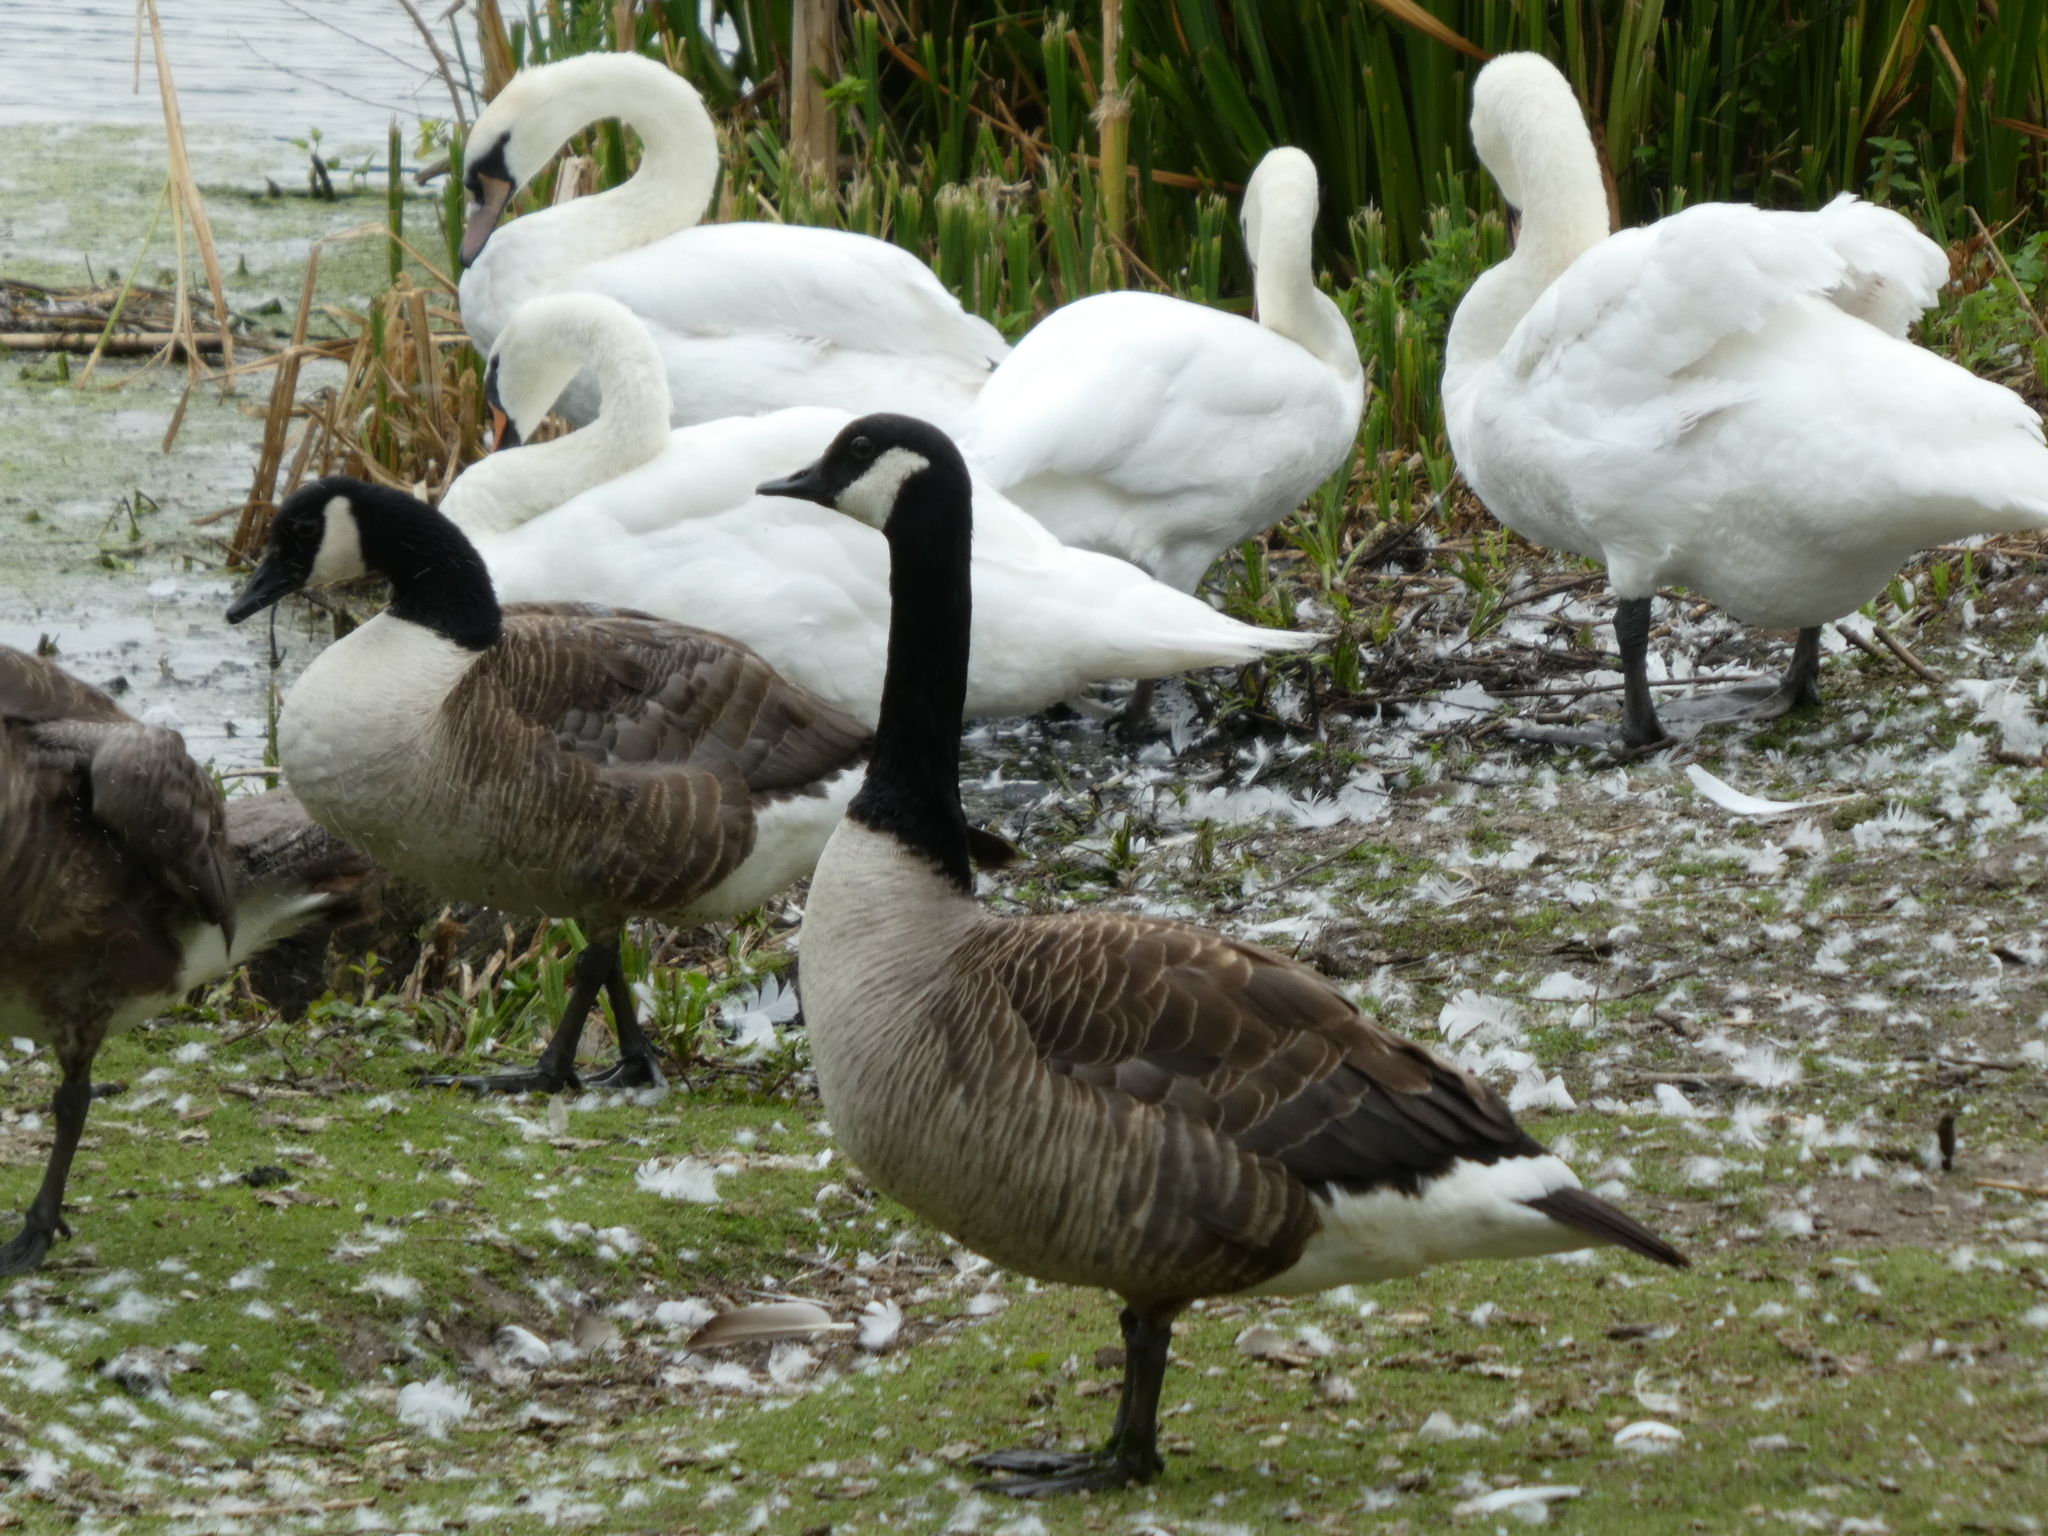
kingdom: Animalia
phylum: Chordata
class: Aves
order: Anseriformes
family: Anatidae
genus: Branta
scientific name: Branta canadensis
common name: Canada goose
